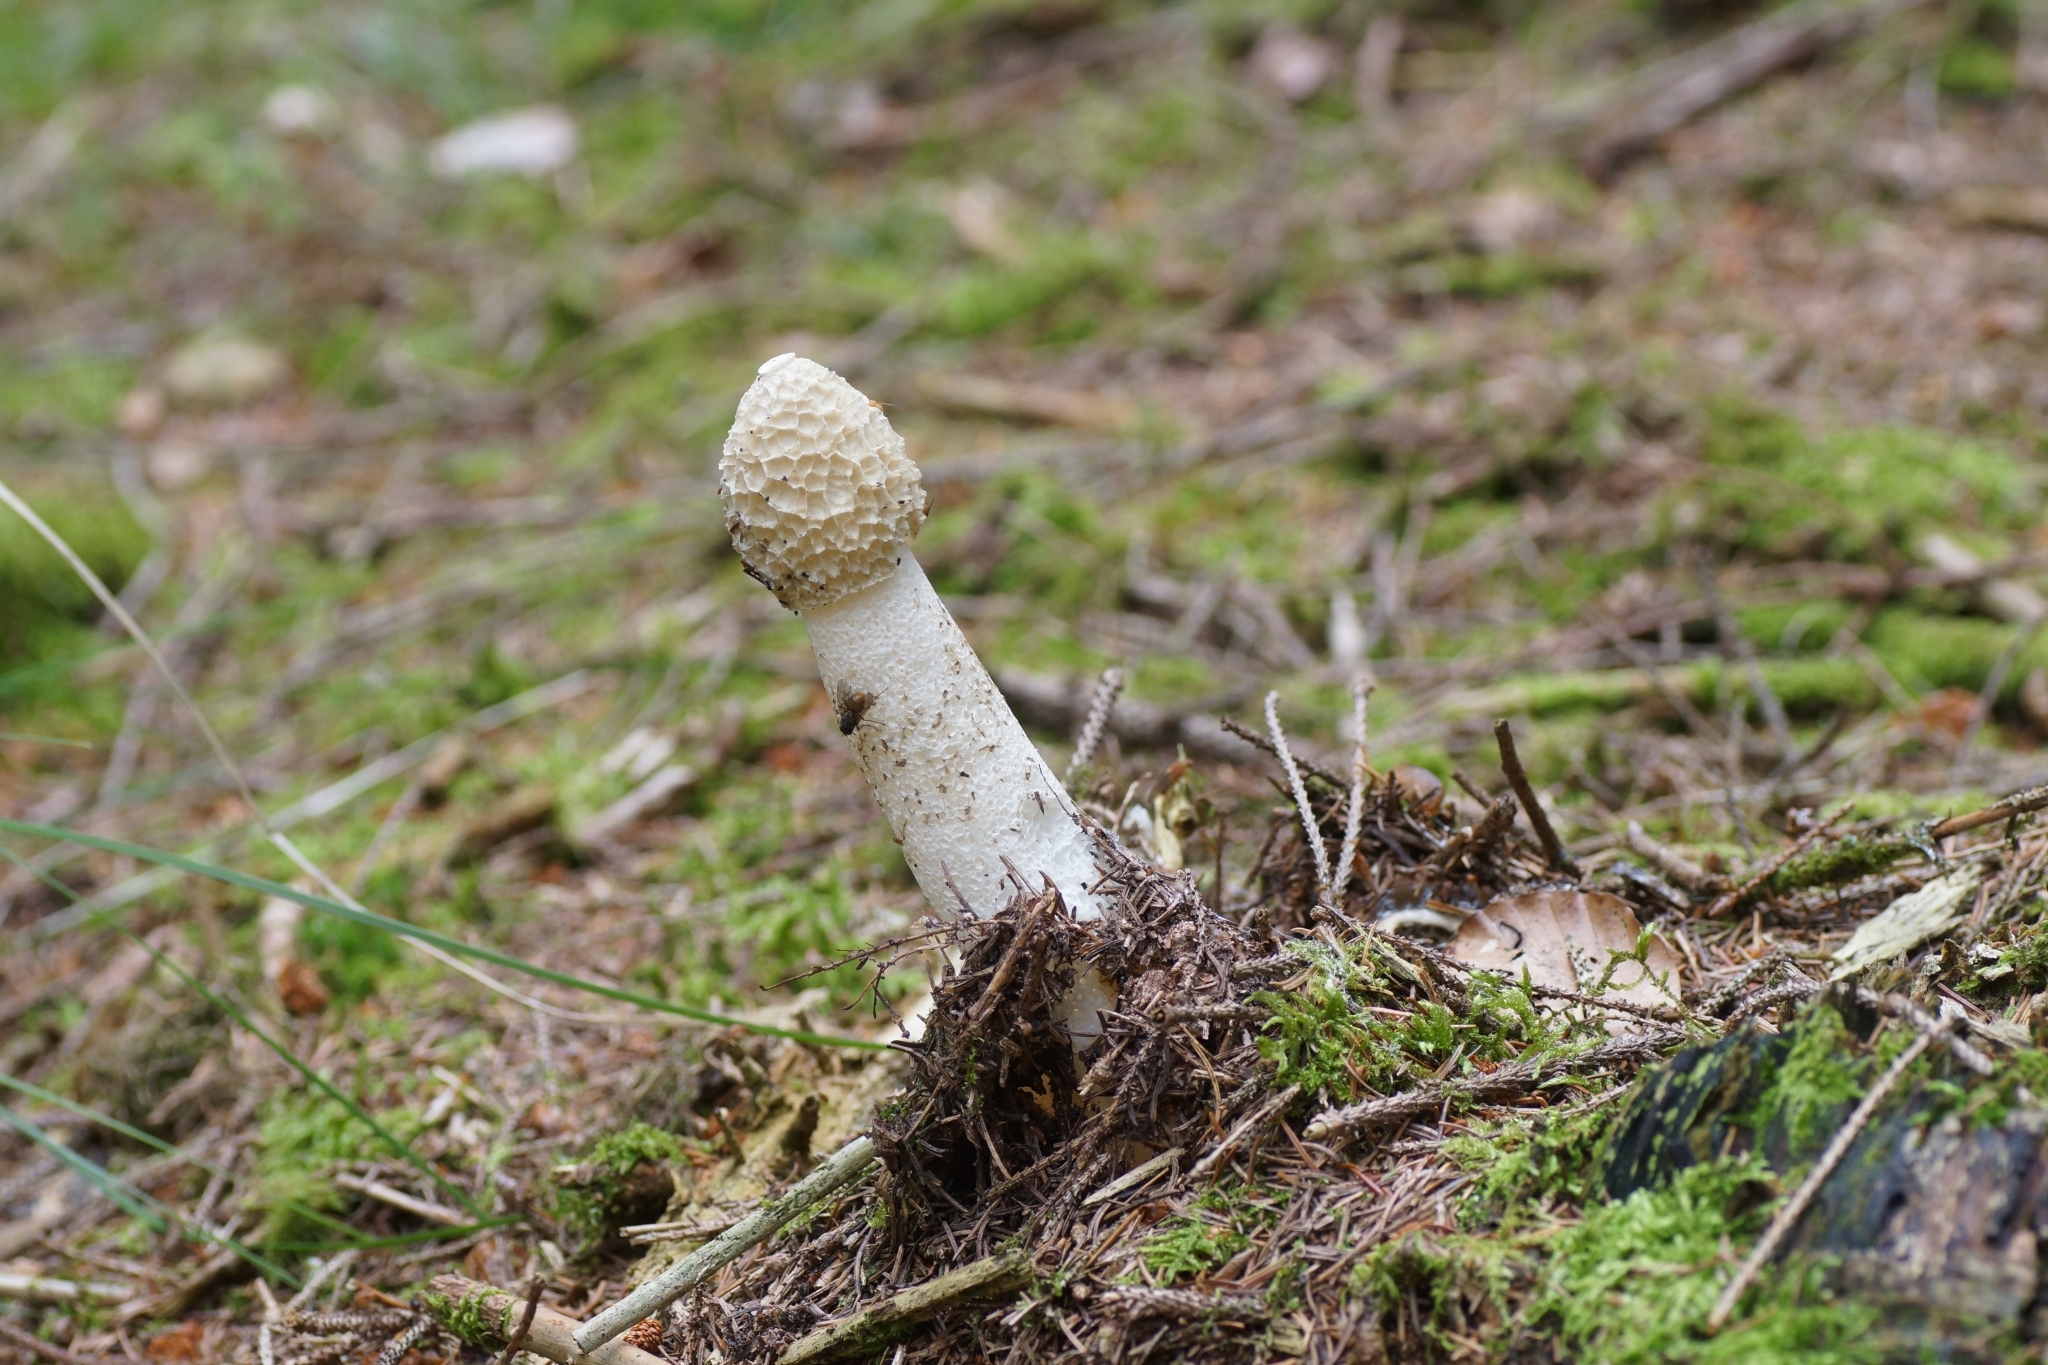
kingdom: Fungi
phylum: Basidiomycota
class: Agaricomycetes
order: Phallales
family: Phallaceae
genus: Phallus
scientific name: Phallus impudicus
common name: Common stinkhorn
